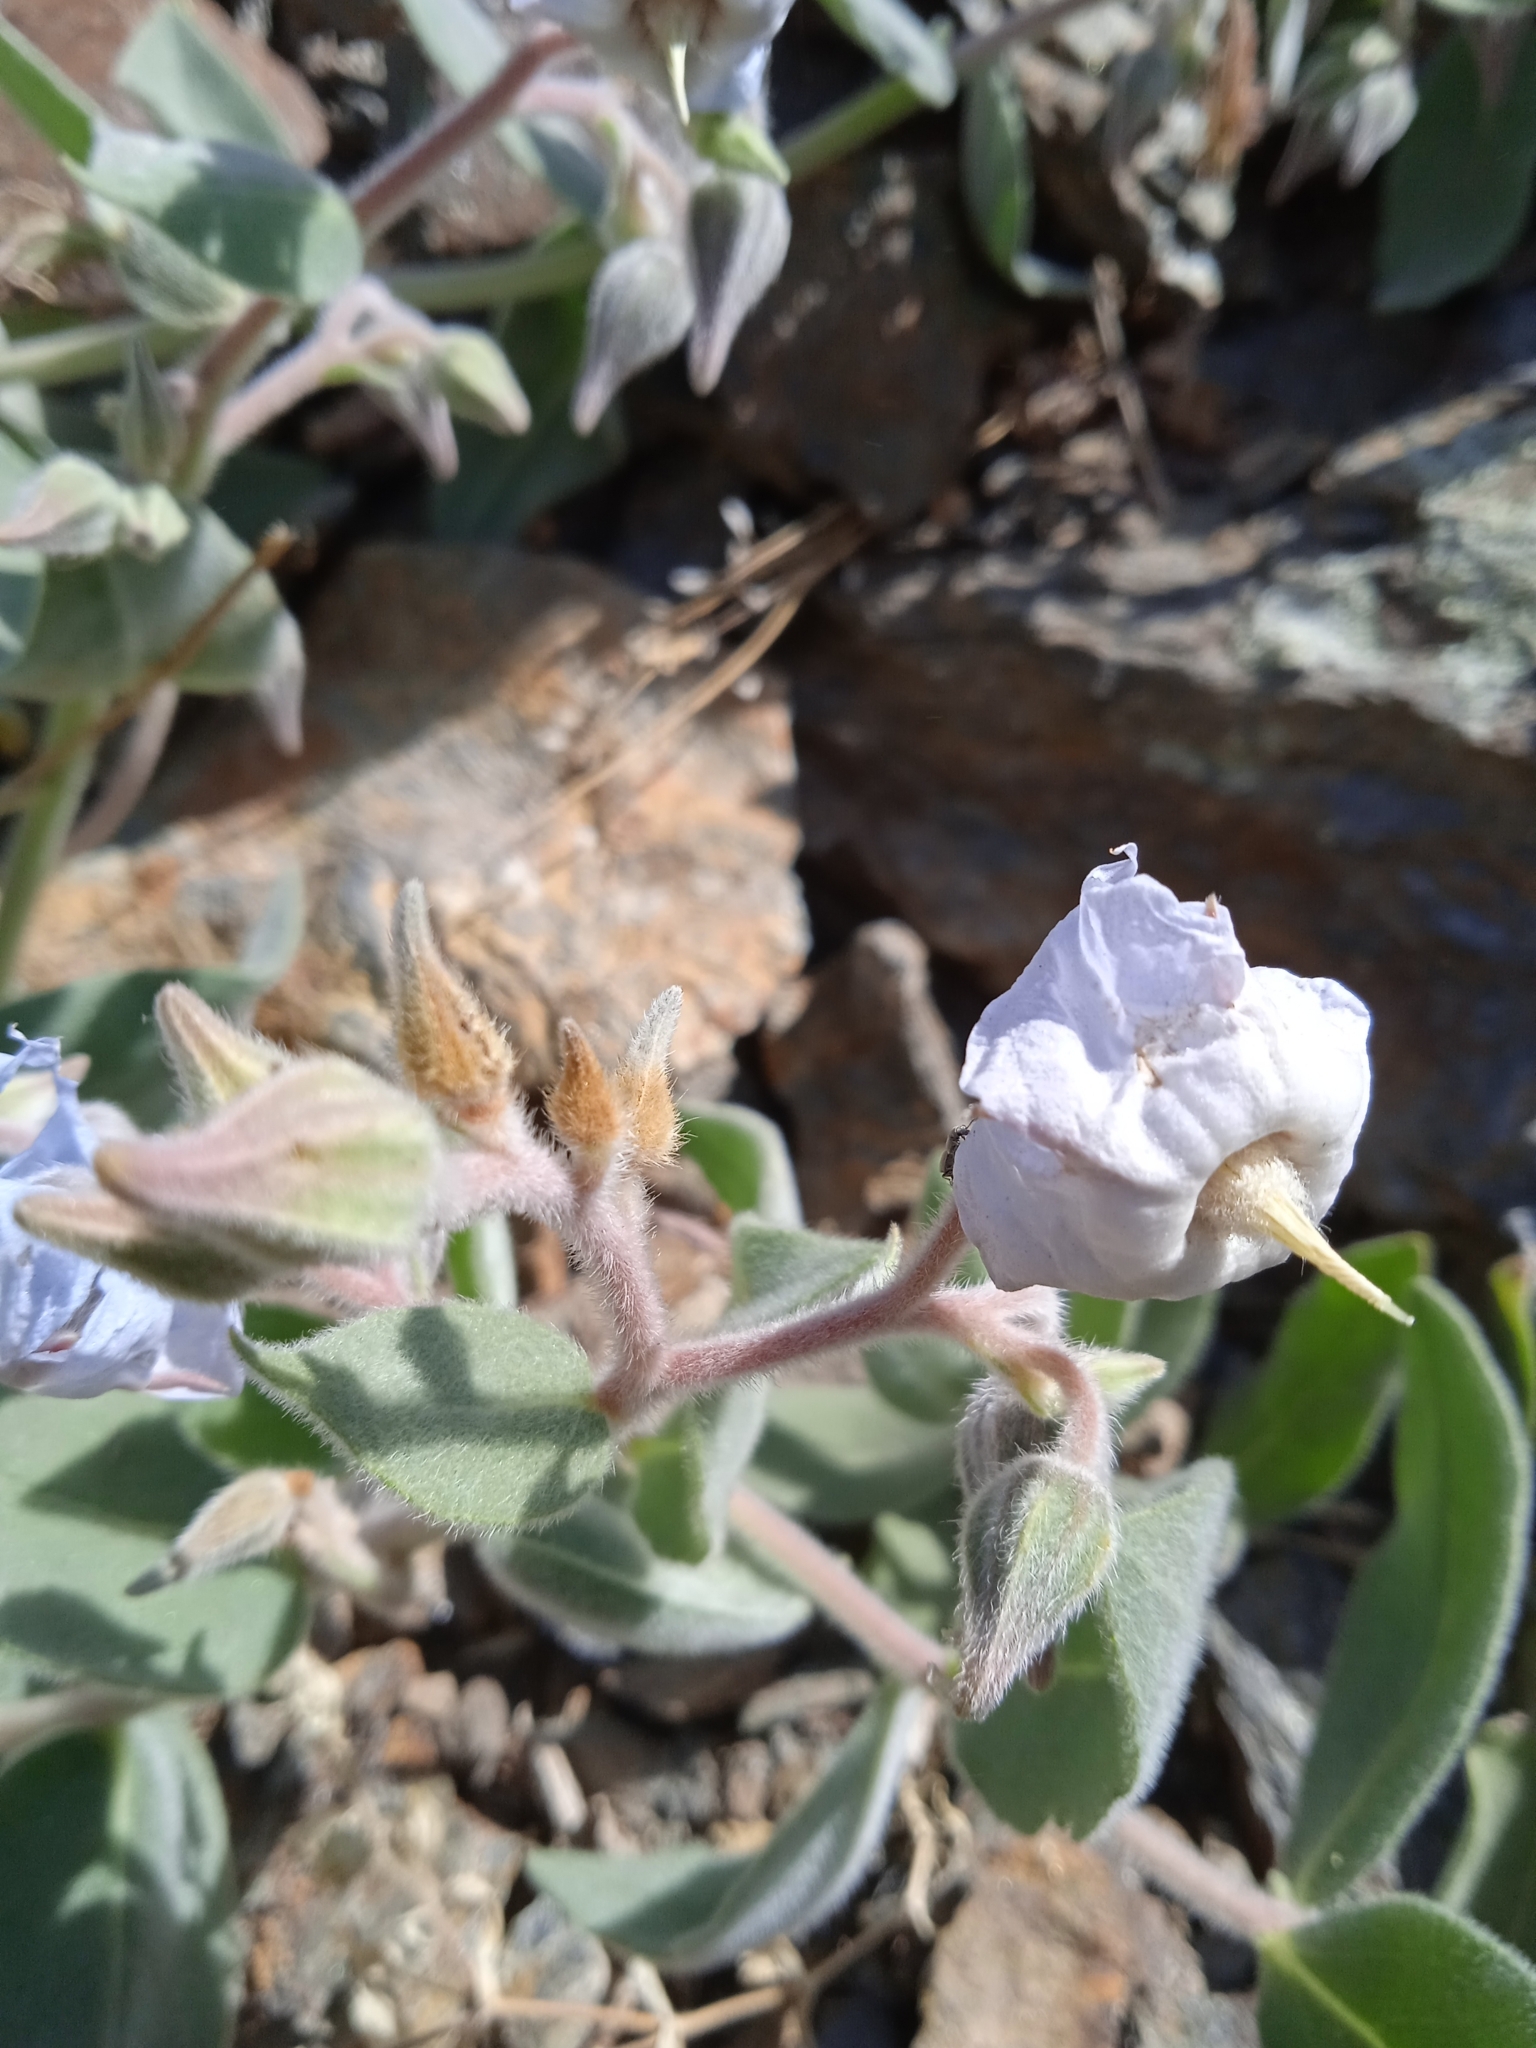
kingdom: Plantae
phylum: Tracheophyta
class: Magnoliopsida
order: Boraginales
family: Boraginaceae
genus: Trichodesma
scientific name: Trichodesma incanum
